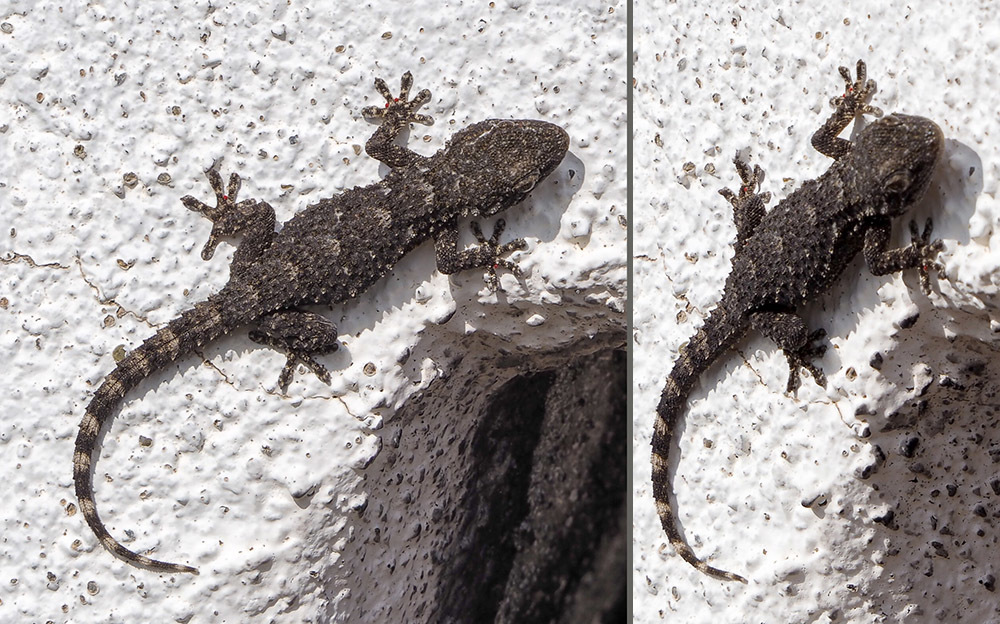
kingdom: Animalia
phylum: Chordata
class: Squamata
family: Phyllodactylidae
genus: Tarentola
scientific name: Tarentola mauritanica
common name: Moorish gecko
